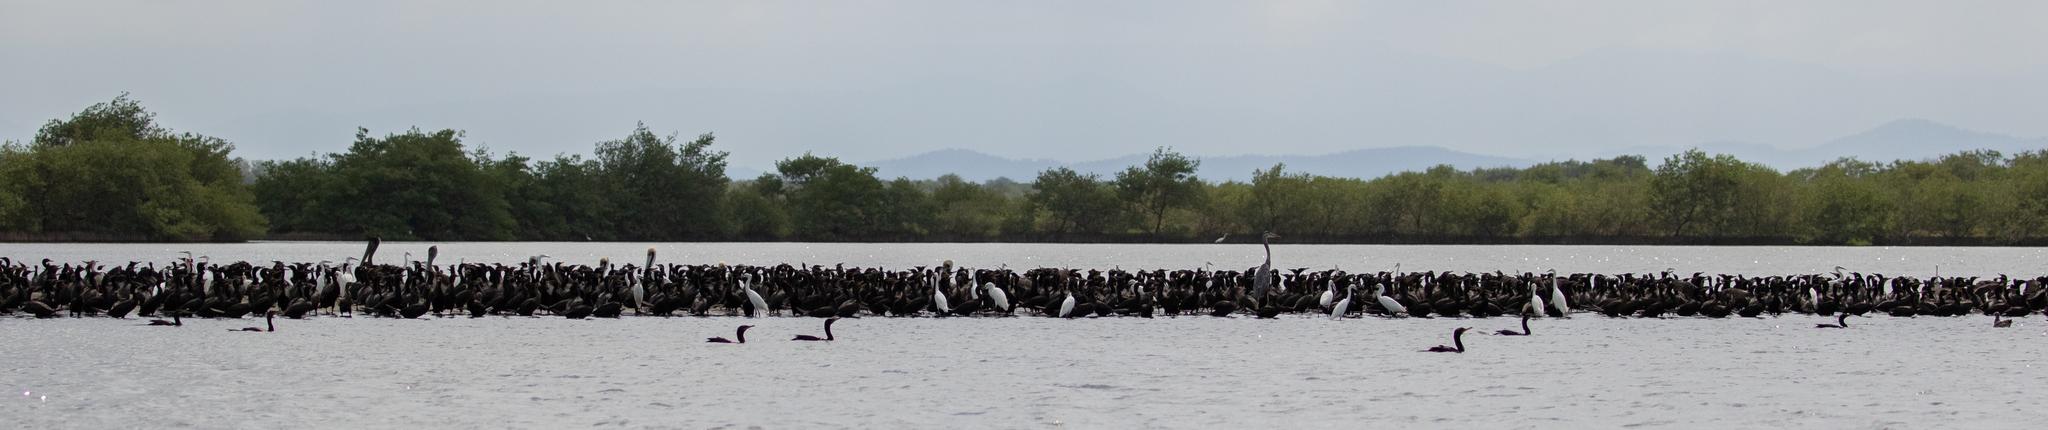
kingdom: Animalia
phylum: Chordata
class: Aves
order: Suliformes
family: Phalacrocoracidae
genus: Phalacrocorax
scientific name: Phalacrocorax brasilianus
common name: Neotropic cormorant
